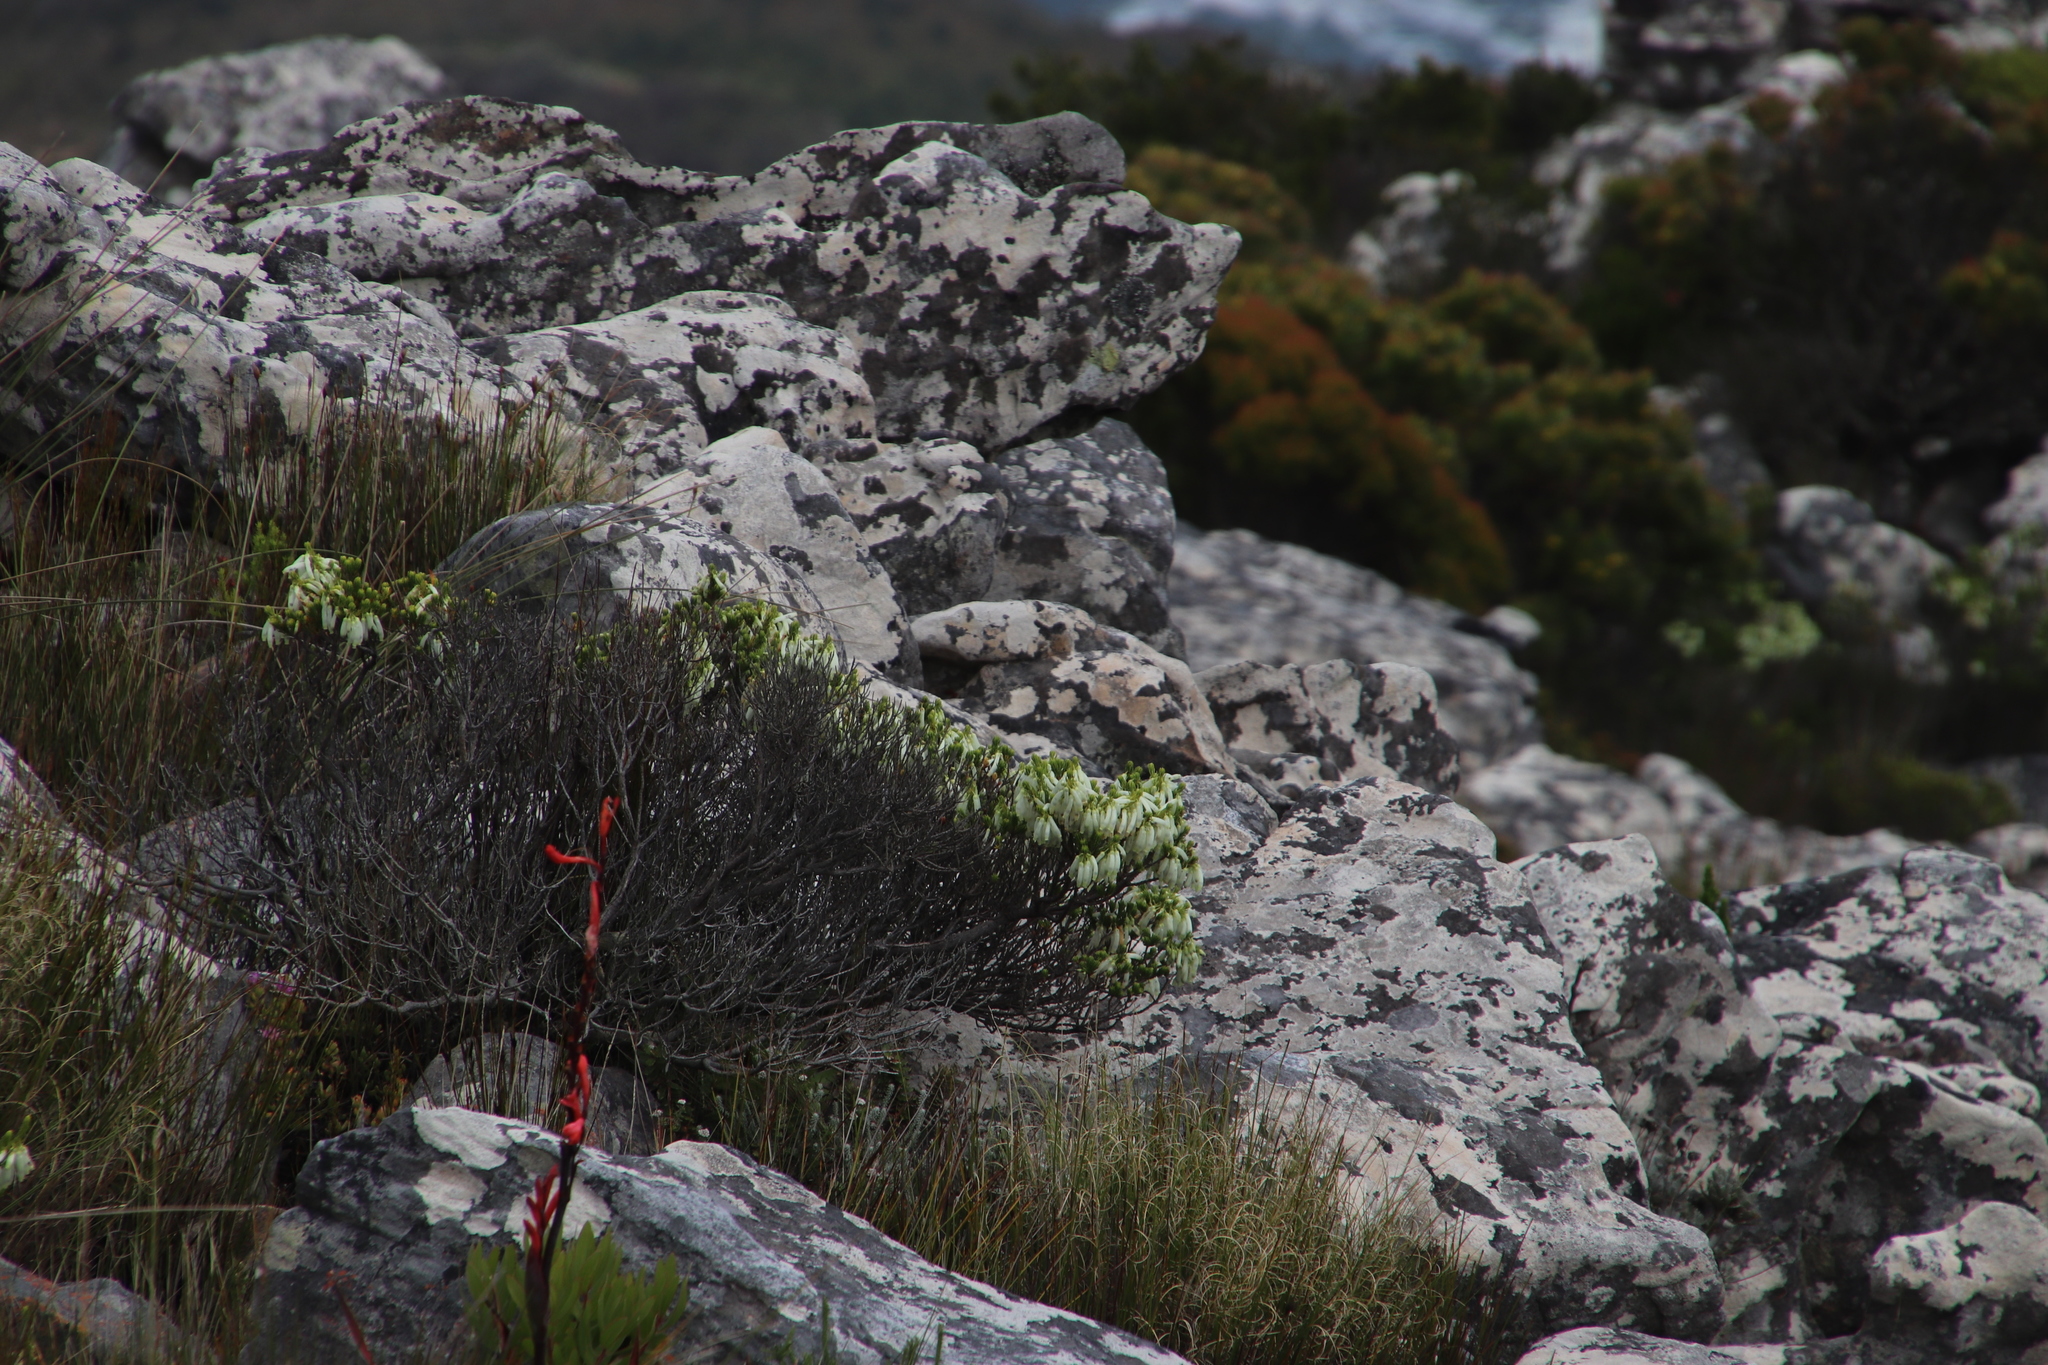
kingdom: Plantae
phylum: Tracheophyta
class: Magnoliopsida
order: Ericales
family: Ericaceae
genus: Erica
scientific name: Erica mammosa
